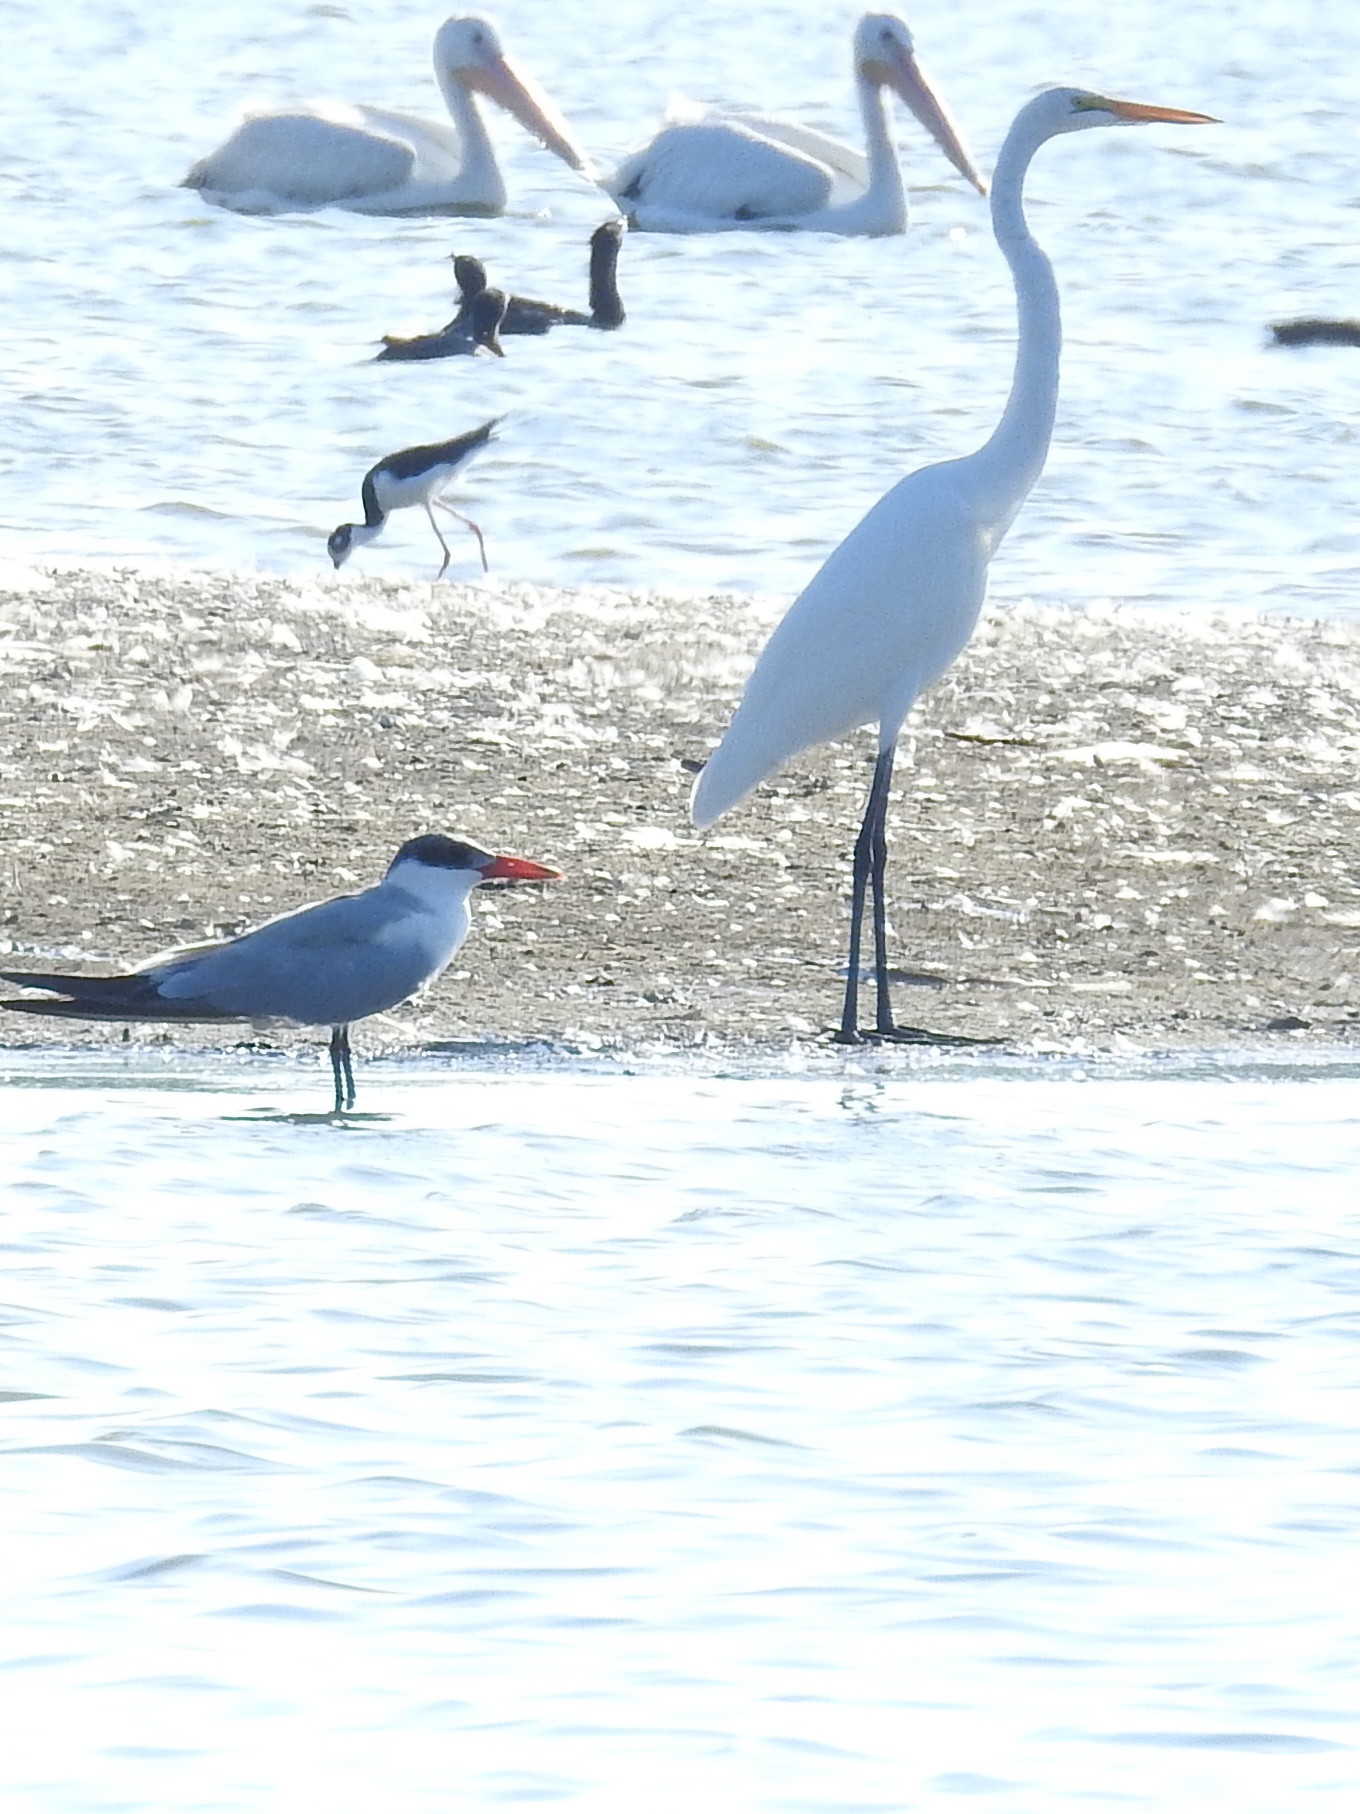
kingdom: Animalia
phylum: Chordata
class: Aves
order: Pelecaniformes
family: Ardeidae
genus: Ardea
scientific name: Ardea alba
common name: Great egret
